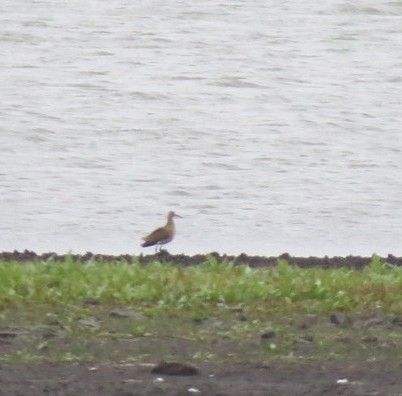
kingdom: Animalia
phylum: Chordata
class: Aves
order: Charadriiformes
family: Scolopacidae
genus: Calidris
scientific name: Calidris pugnax
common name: Ruff
